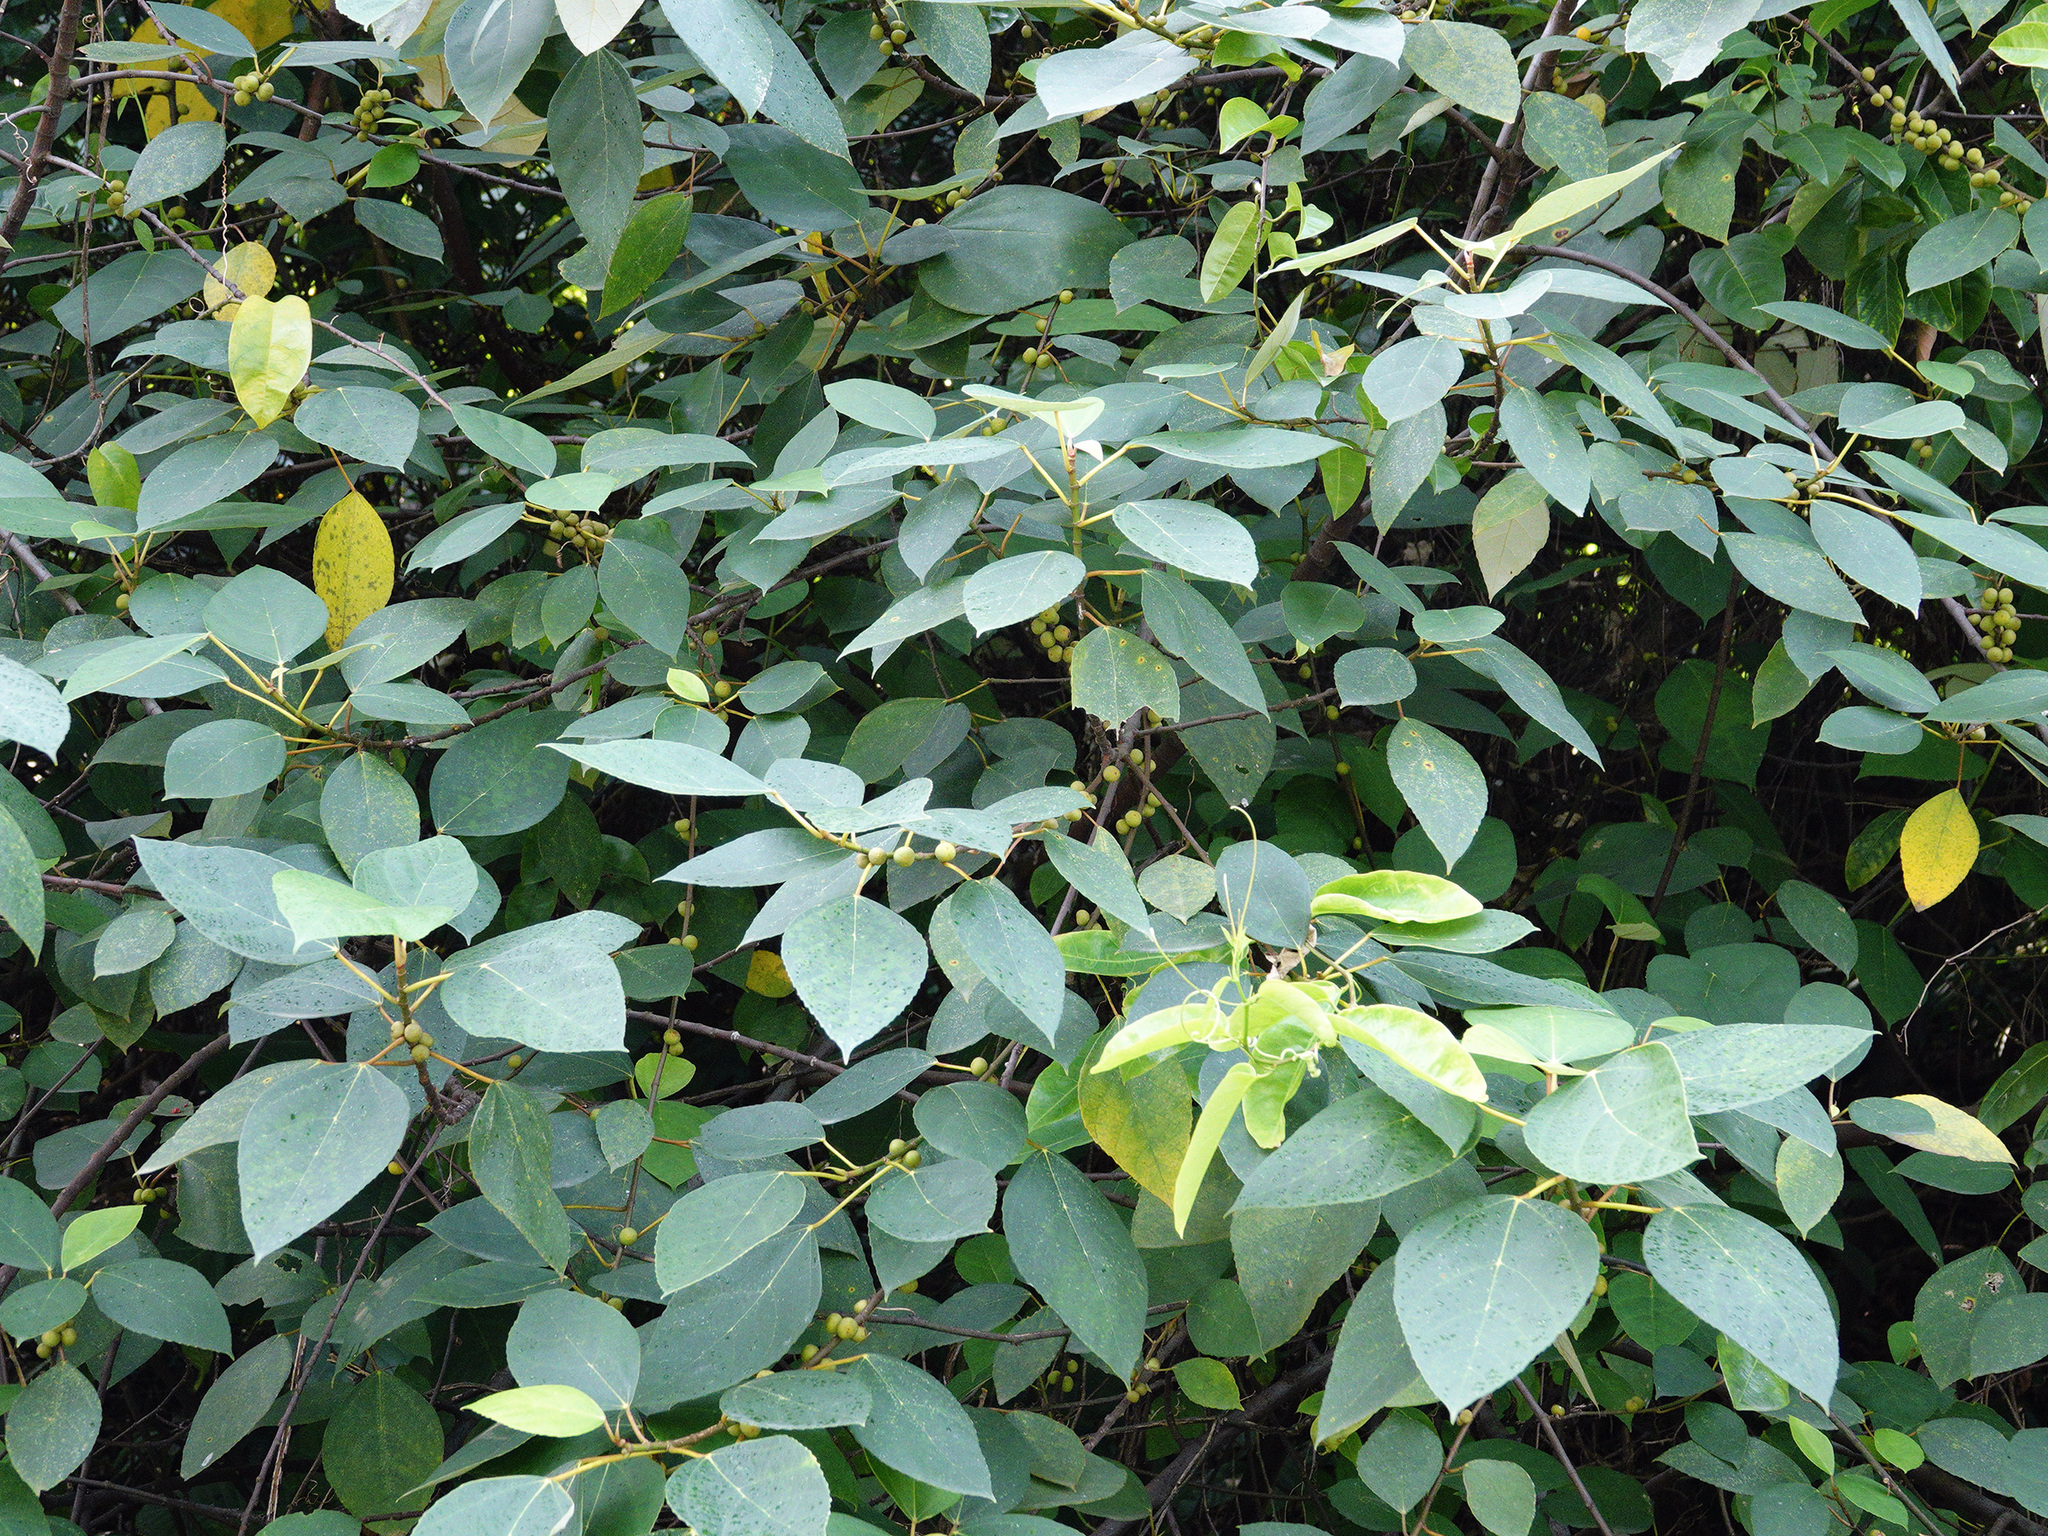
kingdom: Plantae
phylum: Tracheophyta
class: Magnoliopsida
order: Rosales
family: Moraceae
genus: Ficus
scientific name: Ficus grossularioides
